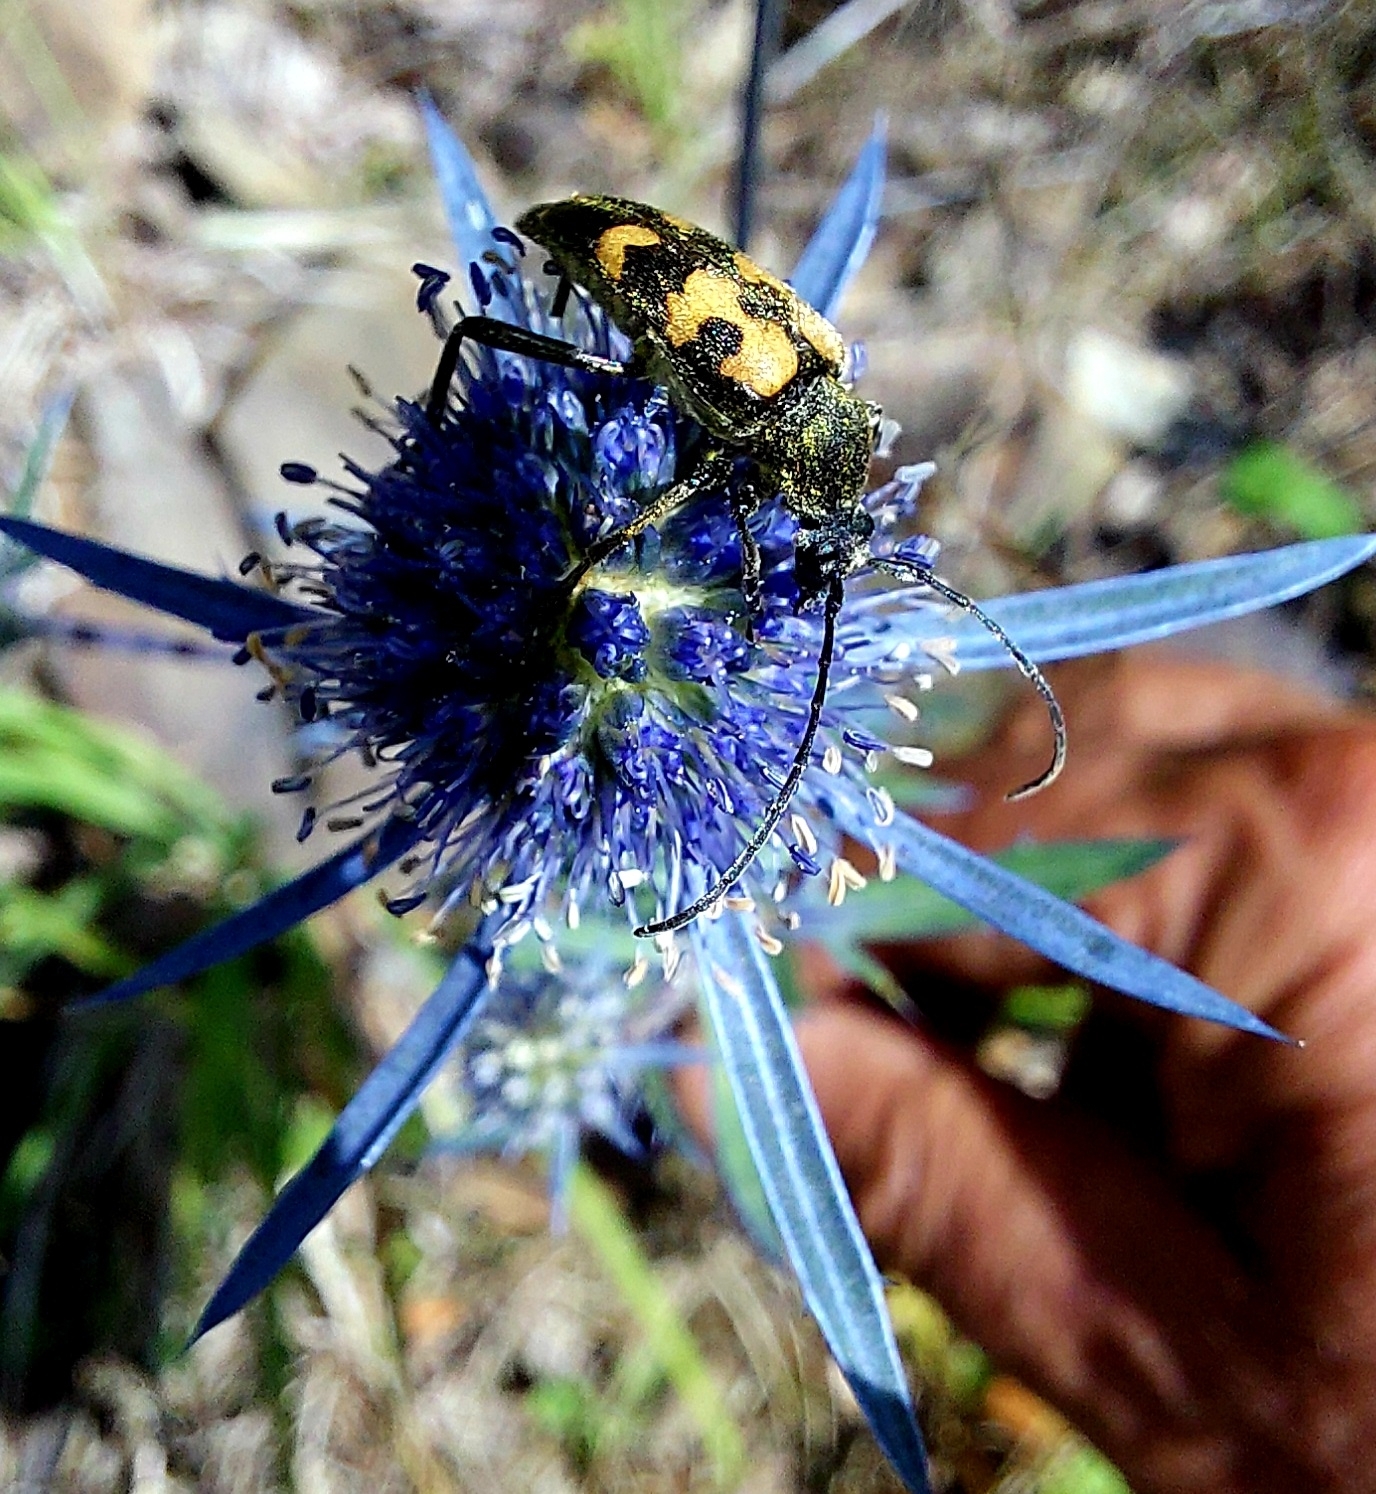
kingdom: Animalia
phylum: Arthropoda
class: Insecta
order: Coleoptera
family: Cerambycidae
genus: Pachytodes
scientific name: Pachytodes
